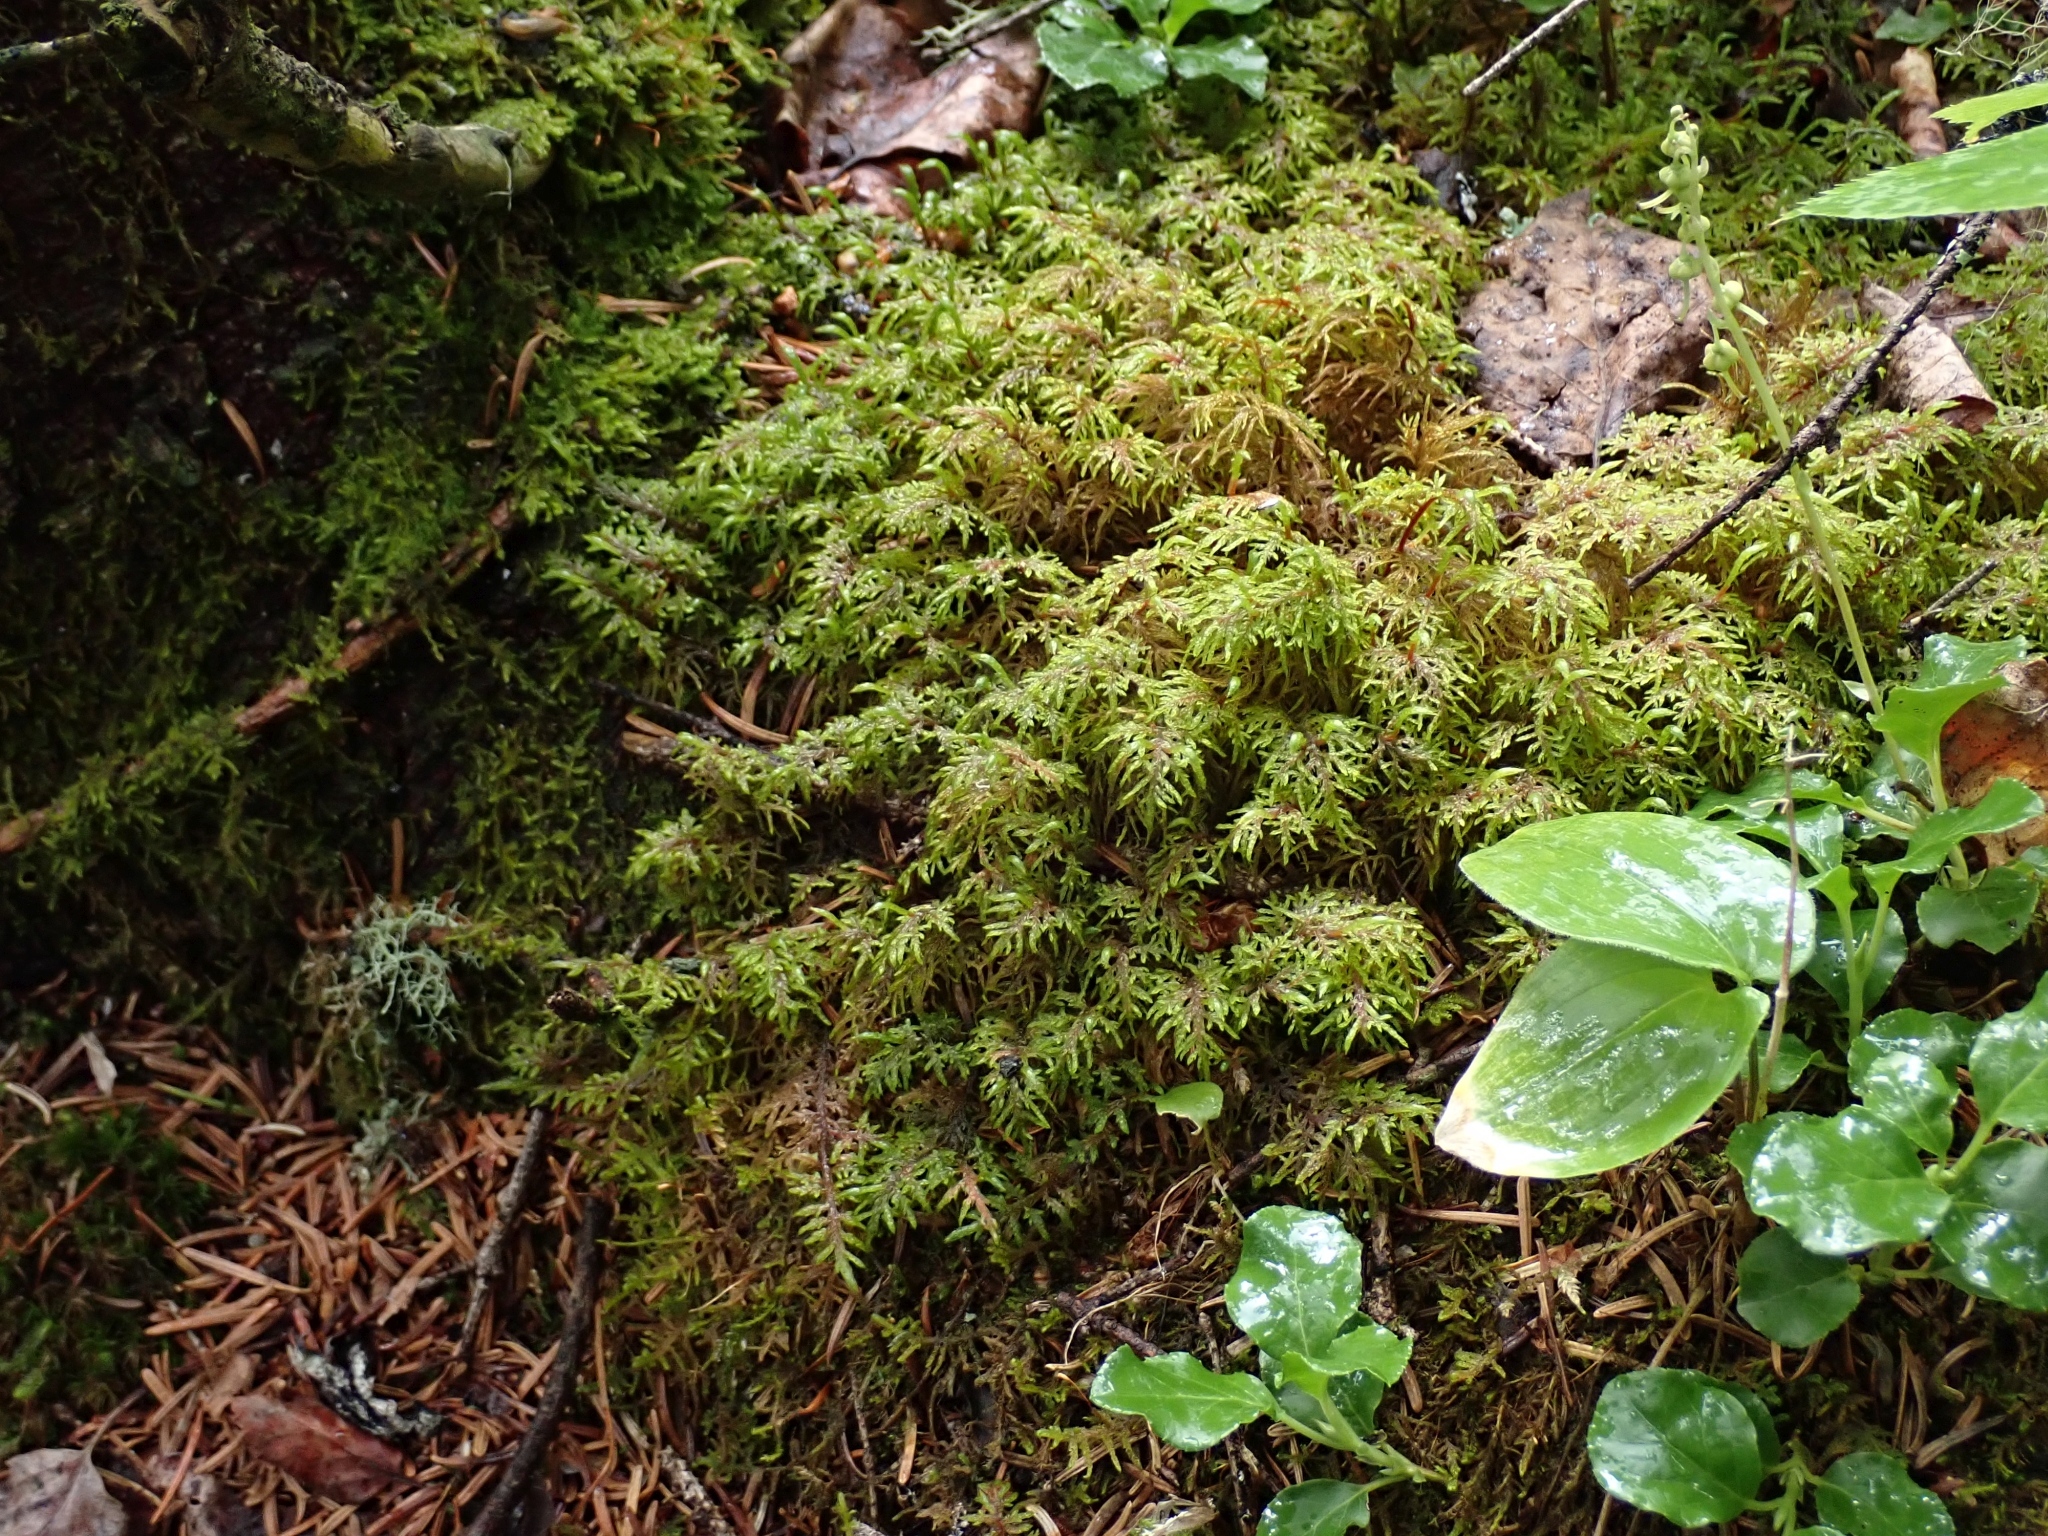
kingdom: Plantae
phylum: Bryophyta
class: Bryopsida
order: Hypnales
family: Hylocomiaceae
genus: Hylocomium
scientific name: Hylocomium splendens
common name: Stairstep moss
